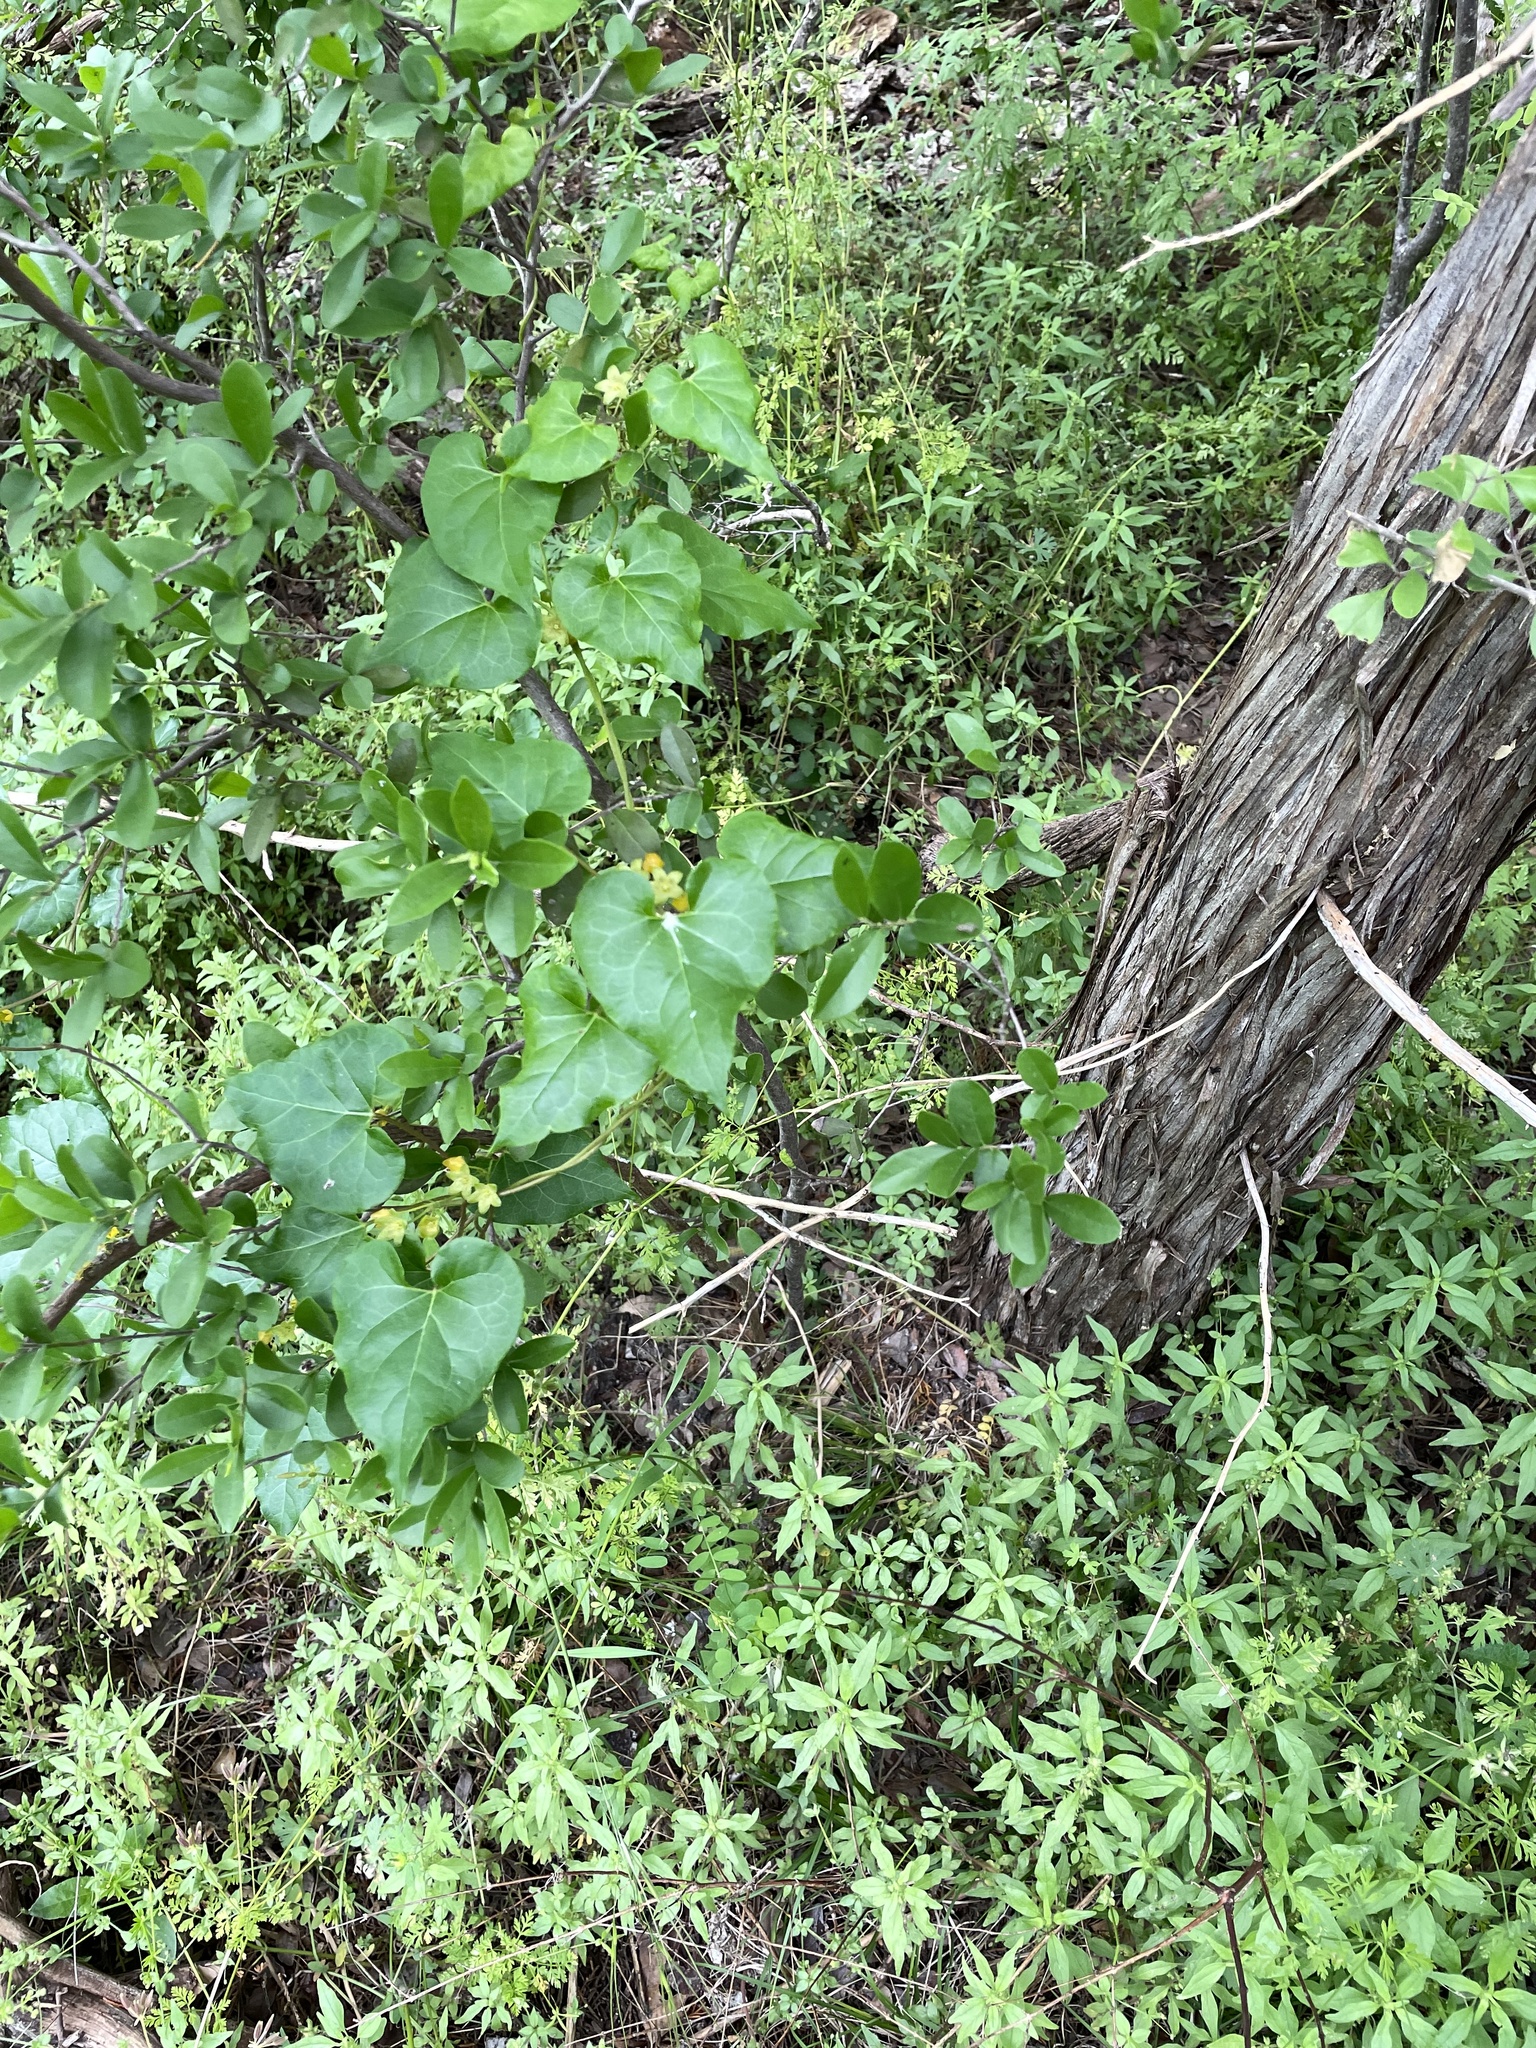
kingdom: Plantae
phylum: Tracheophyta
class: Magnoliopsida
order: Gentianales
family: Apocynaceae
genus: Matelea
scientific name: Matelea edwardsensis
